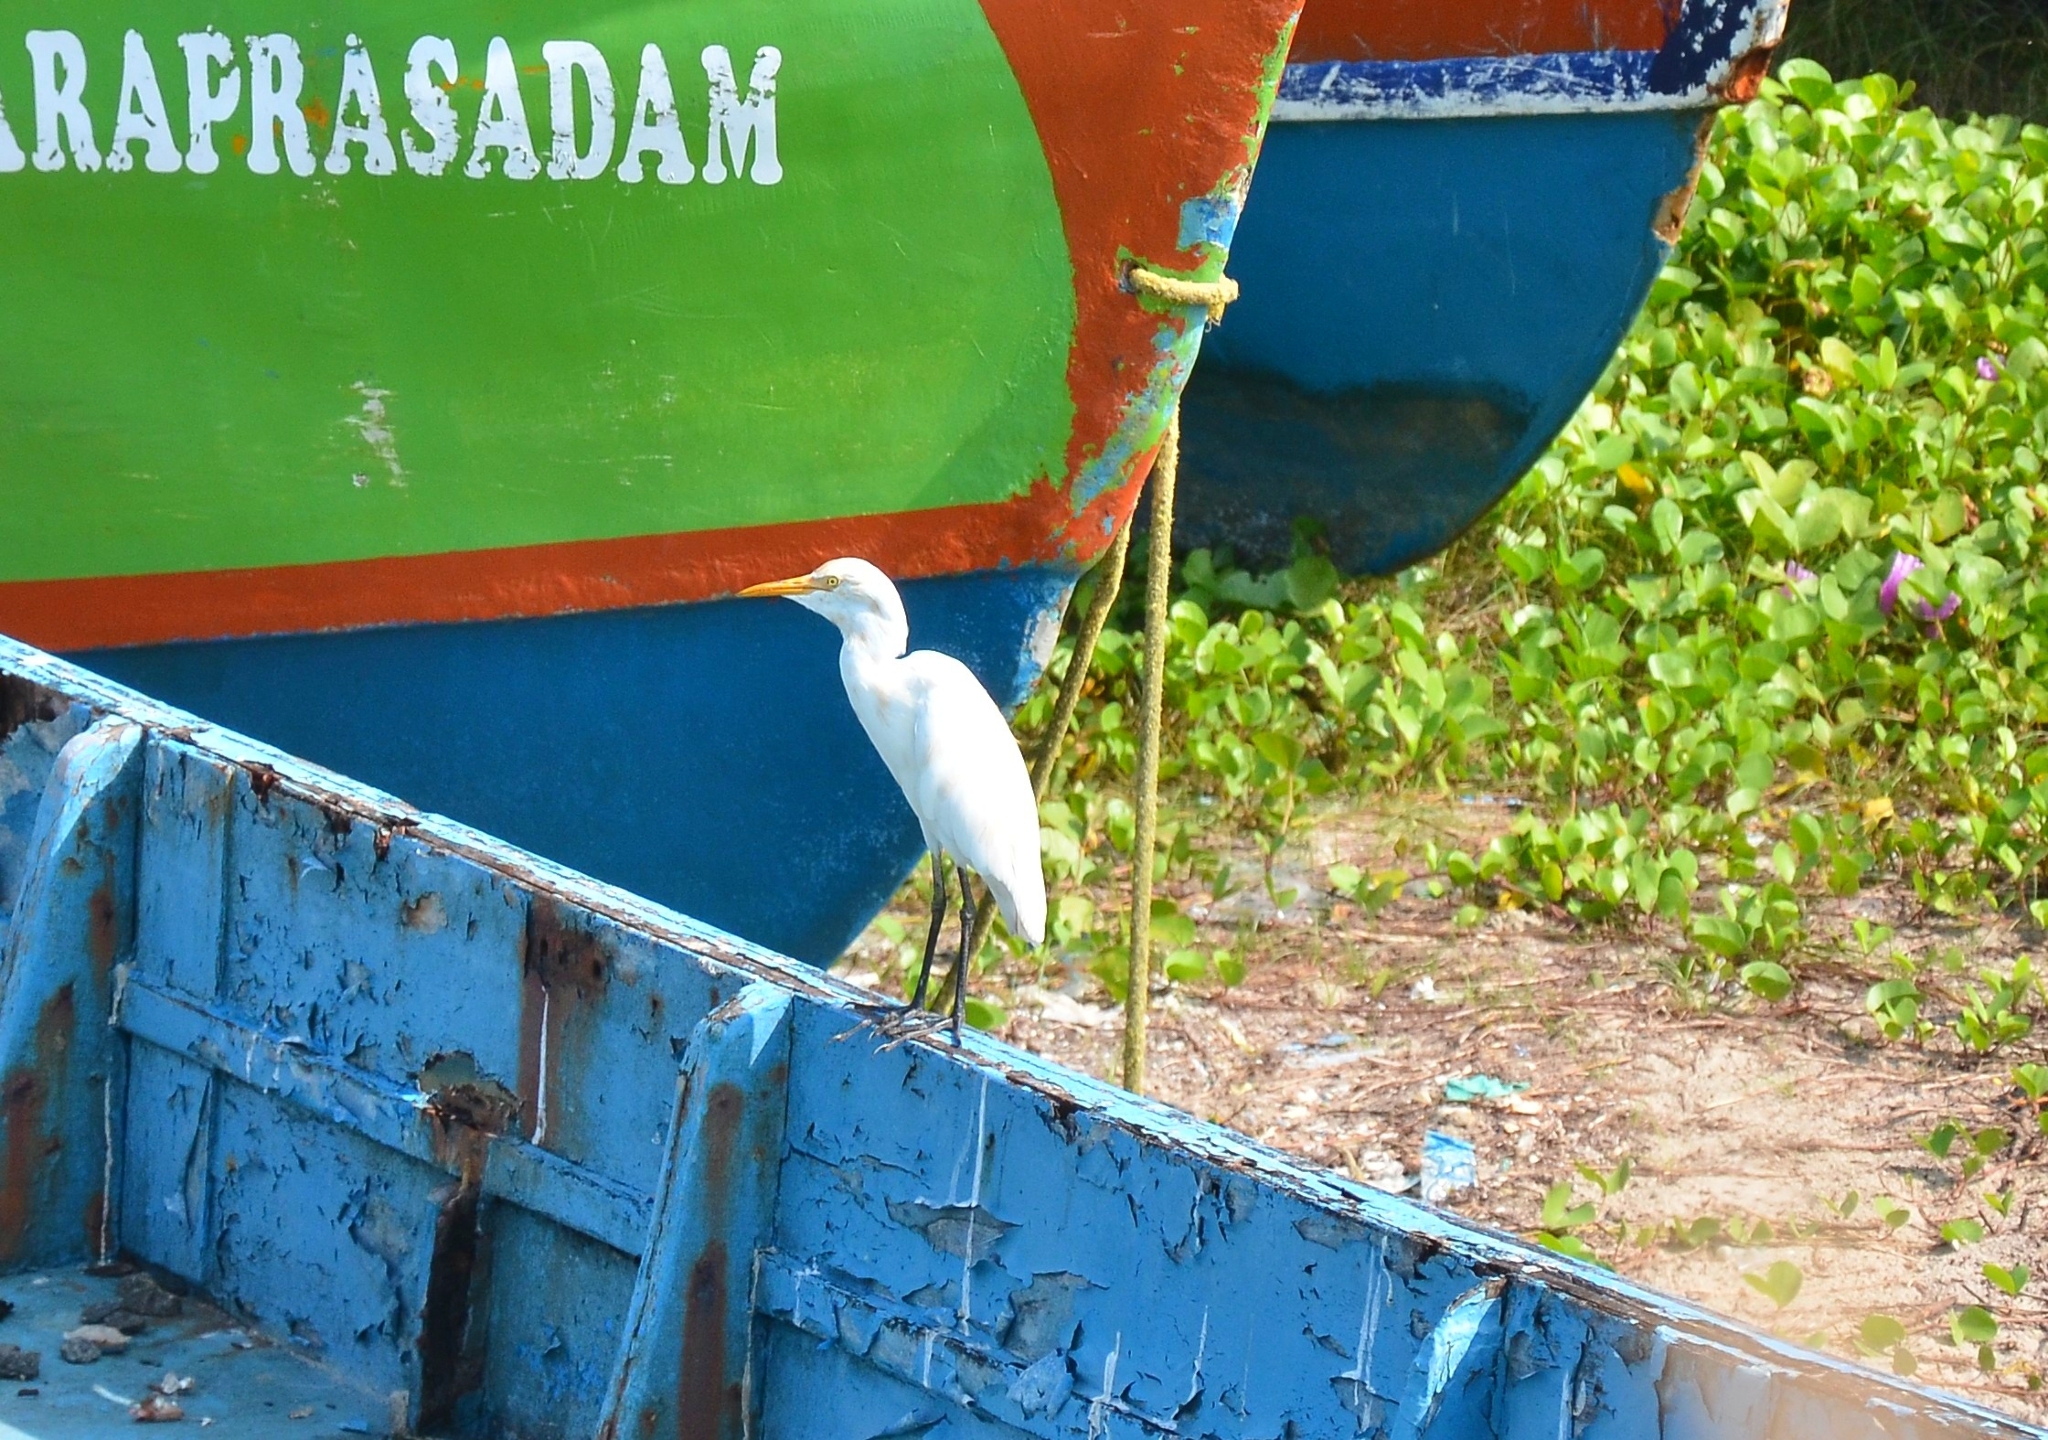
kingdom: Animalia
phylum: Chordata
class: Aves
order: Pelecaniformes
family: Ardeidae
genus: Bubulcus
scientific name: Bubulcus coromandus
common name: Eastern cattle egret
